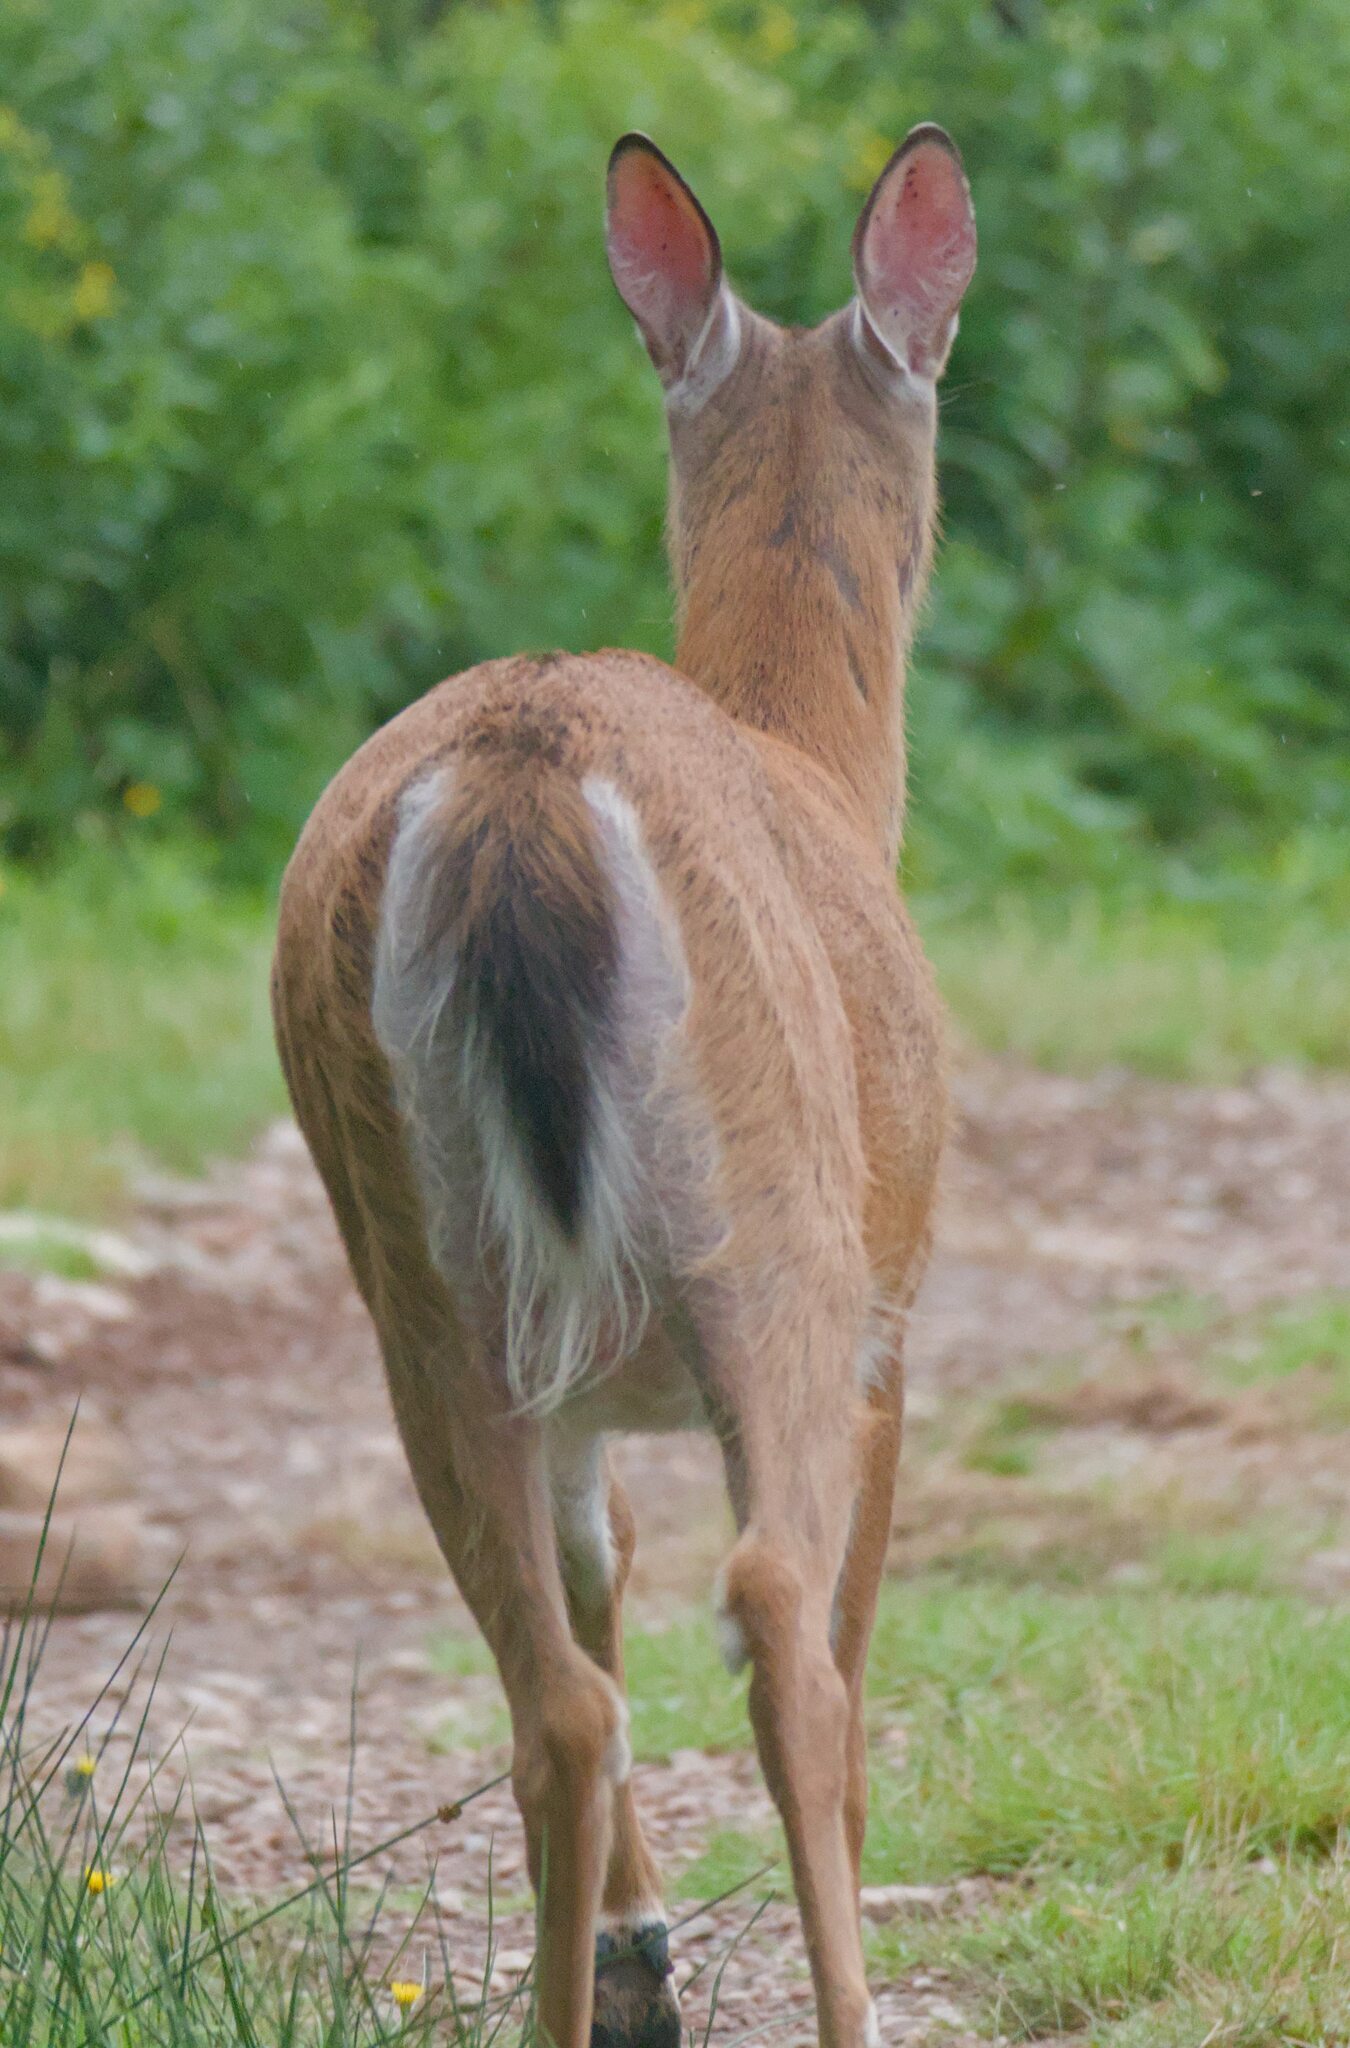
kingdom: Animalia
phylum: Chordata
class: Mammalia
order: Artiodactyla
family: Cervidae
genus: Odocoileus
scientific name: Odocoileus virginianus
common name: White-tailed deer
